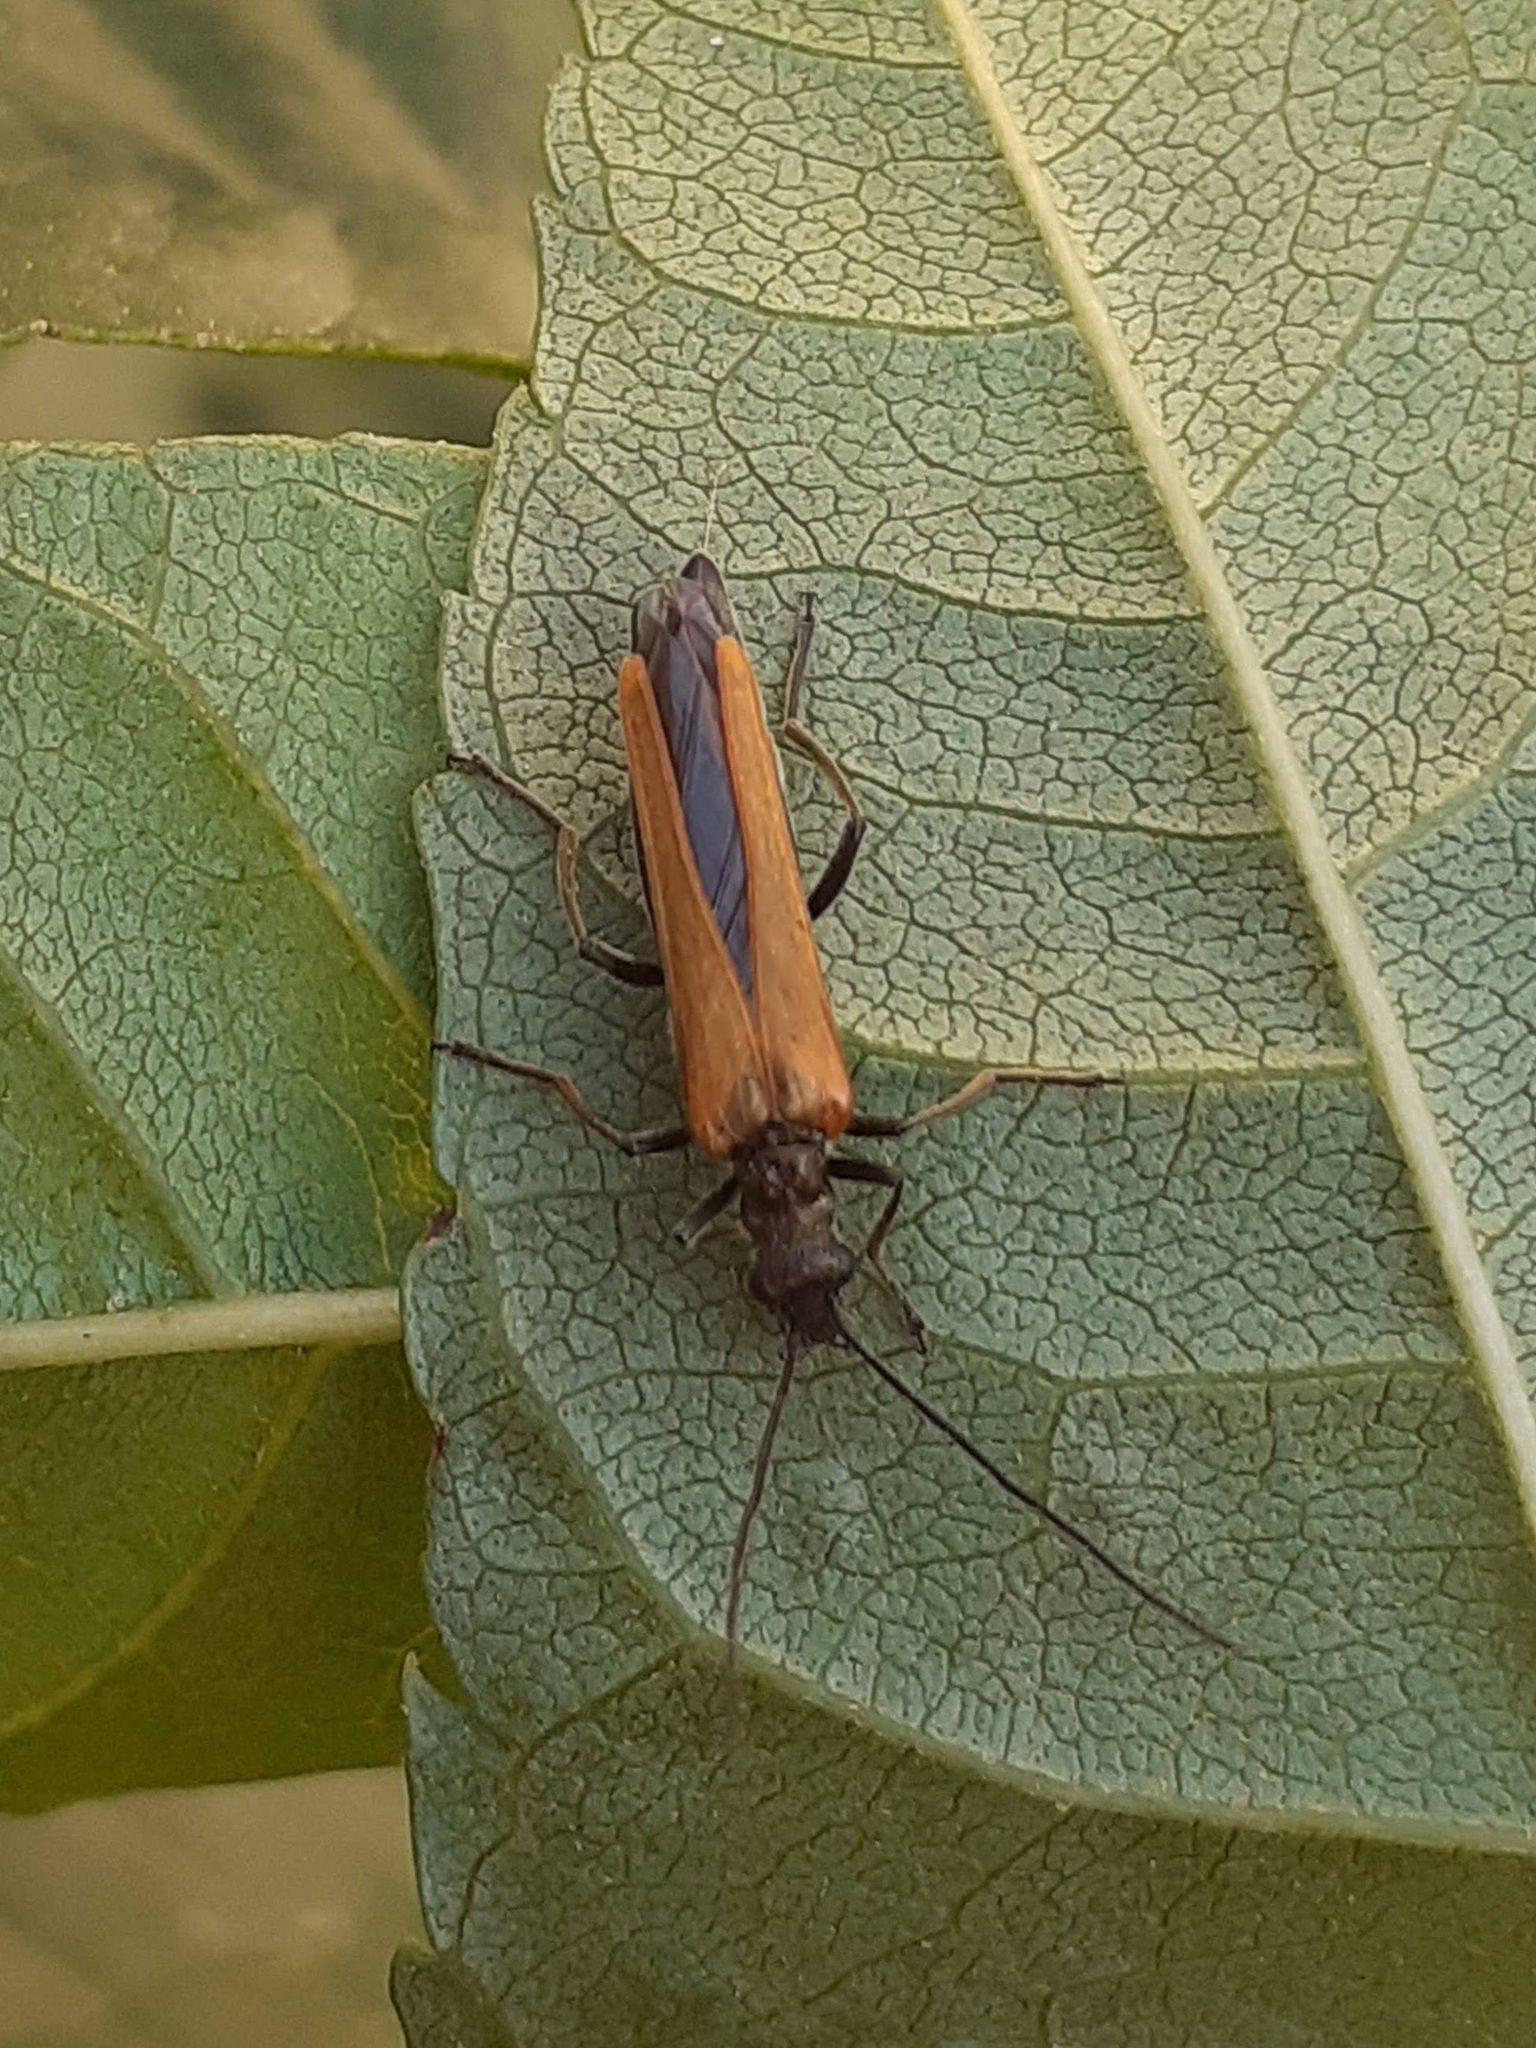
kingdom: Animalia
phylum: Arthropoda
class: Insecta
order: Coleoptera
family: Oedemeridae
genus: Oedemera
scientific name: Oedemera femorata
